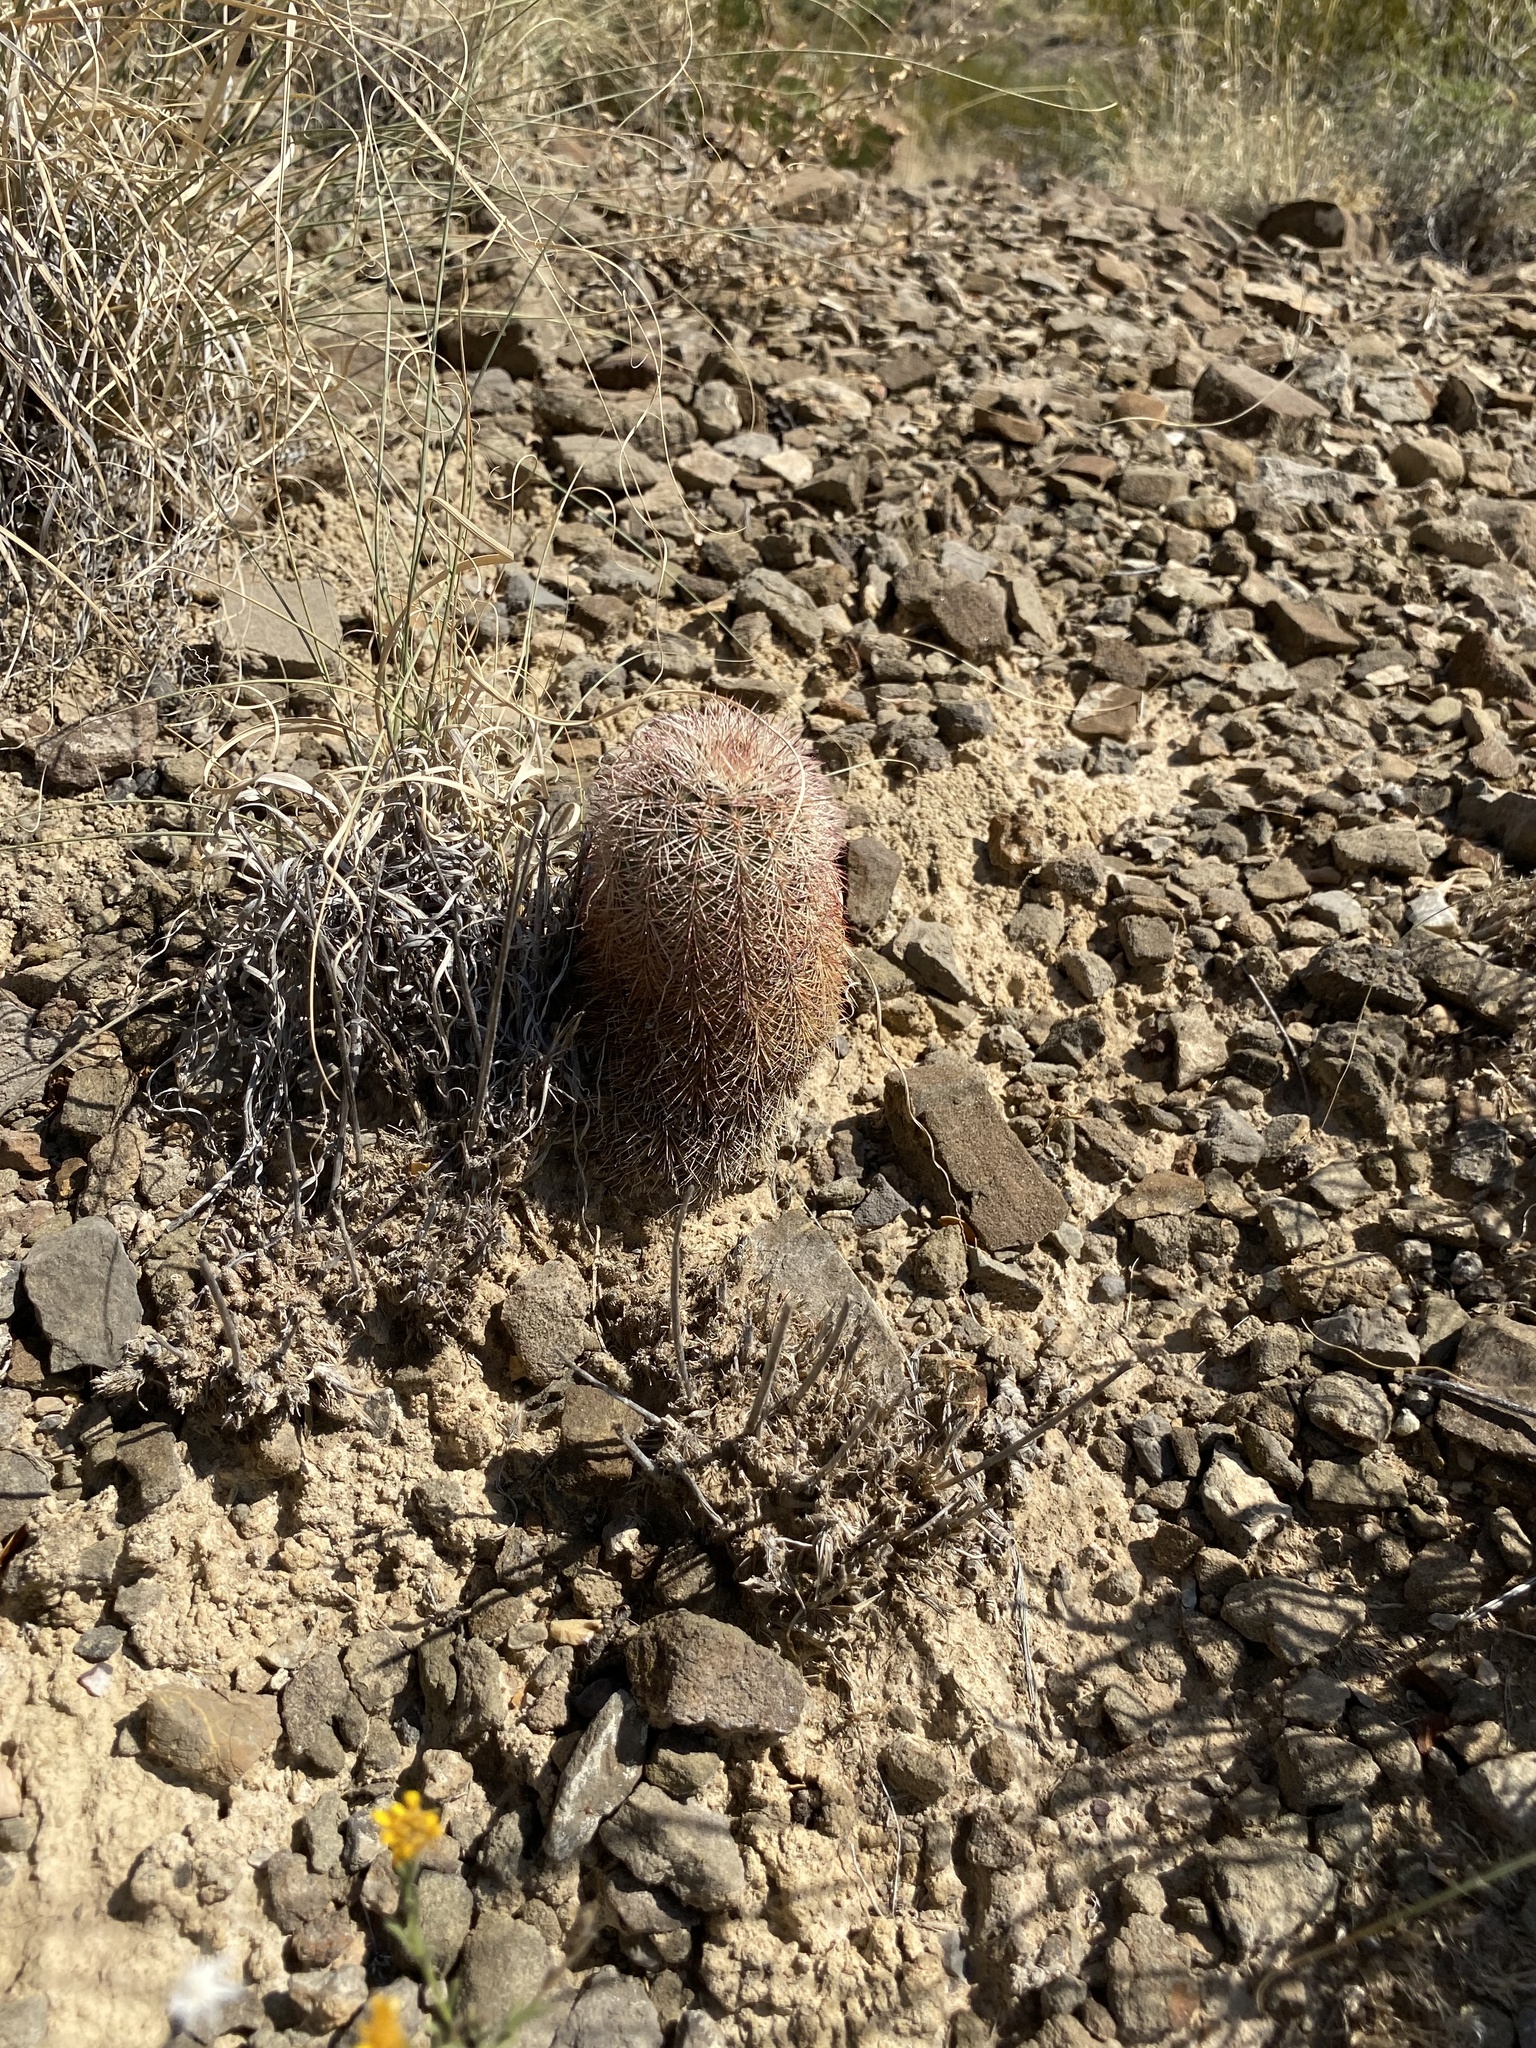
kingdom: Plantae
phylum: Tracheophyta
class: Magnoliopsida
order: Caryophyllales
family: Cactaceae
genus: Echinocereus
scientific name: Echinocereus dasyacanthus
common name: Spiny hedgehog cactus
